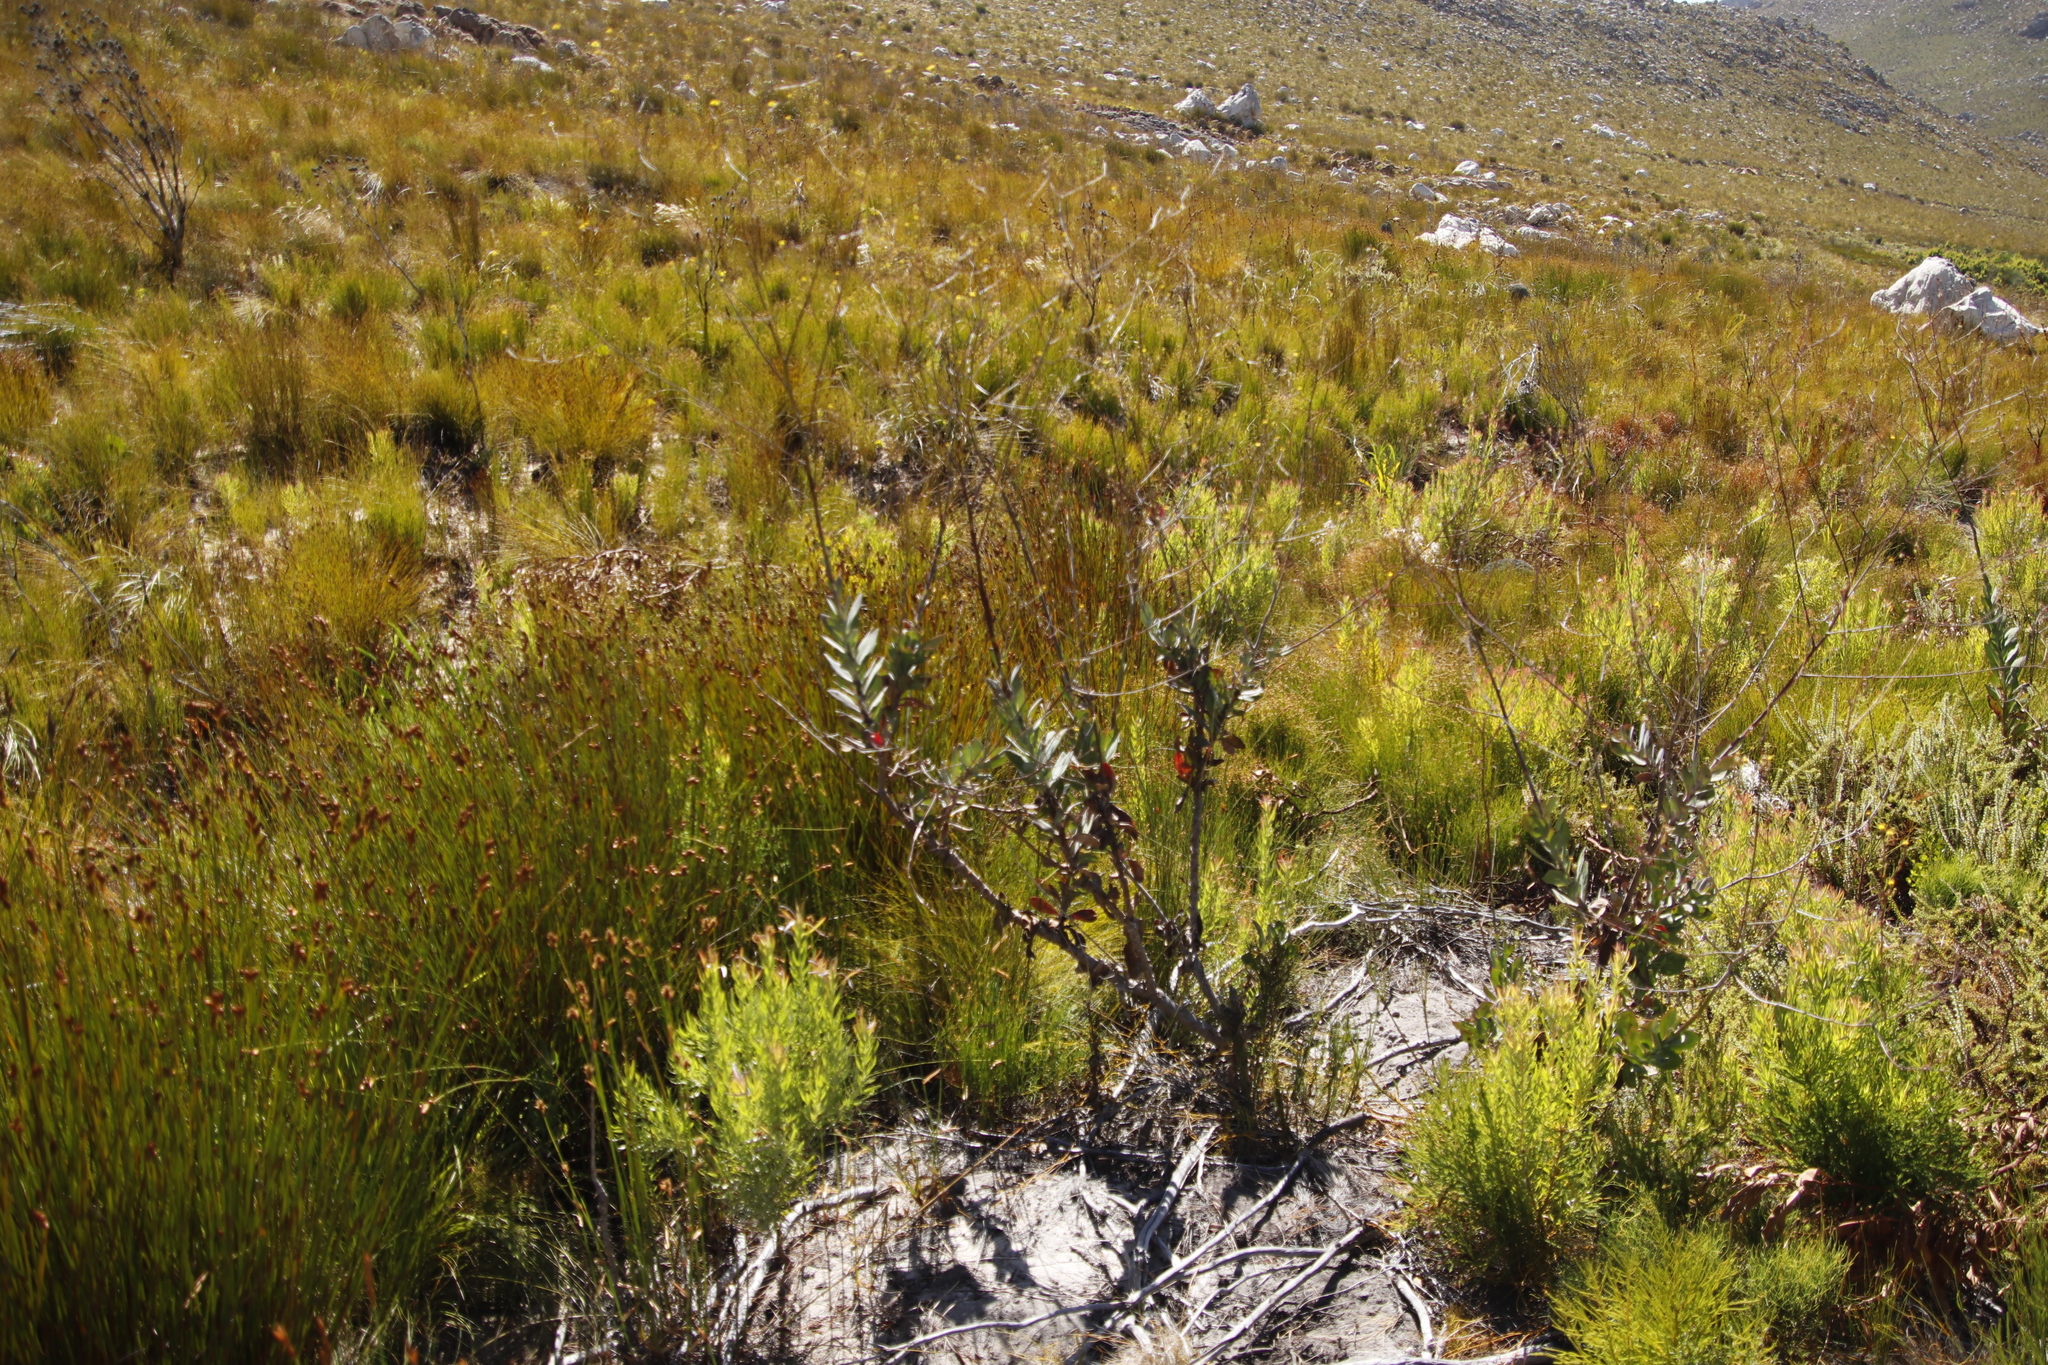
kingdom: Plantae
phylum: Tracheophyta
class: Magnoliopsida
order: Asterales
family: Asteraceae
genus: Othonna
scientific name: Othonna quinquedentata
